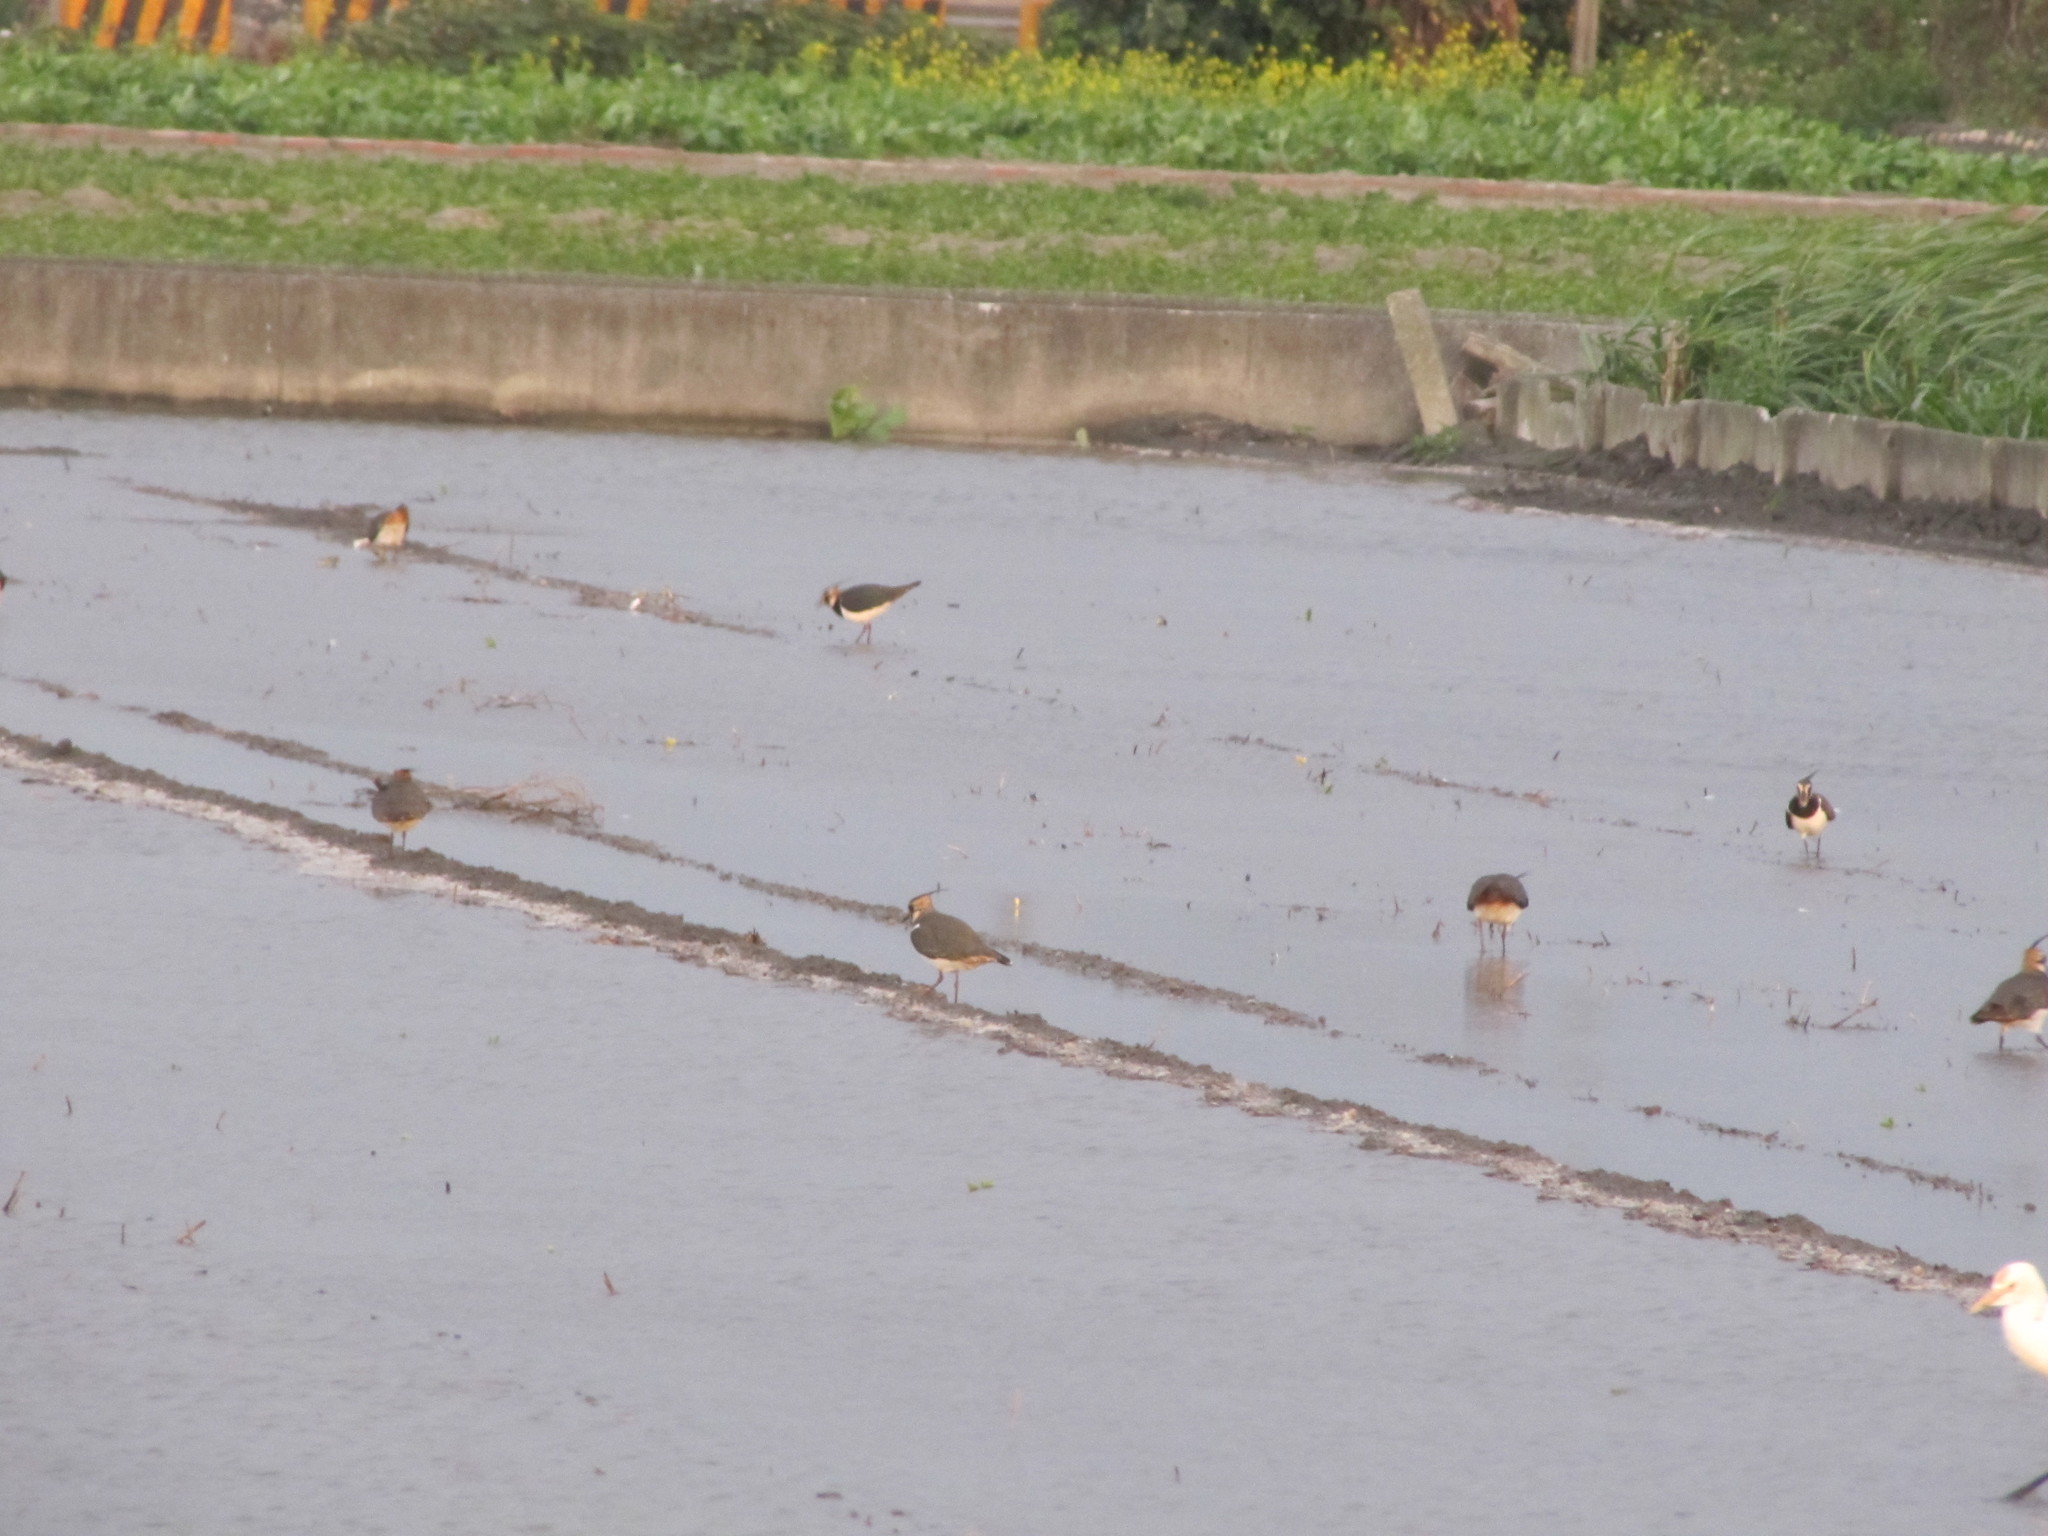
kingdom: Animalia
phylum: Chordata
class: Aves
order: Charadriiformes
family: Charadriidae
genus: Vanellus
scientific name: Vanellus vanellus
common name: Northern lapwing
